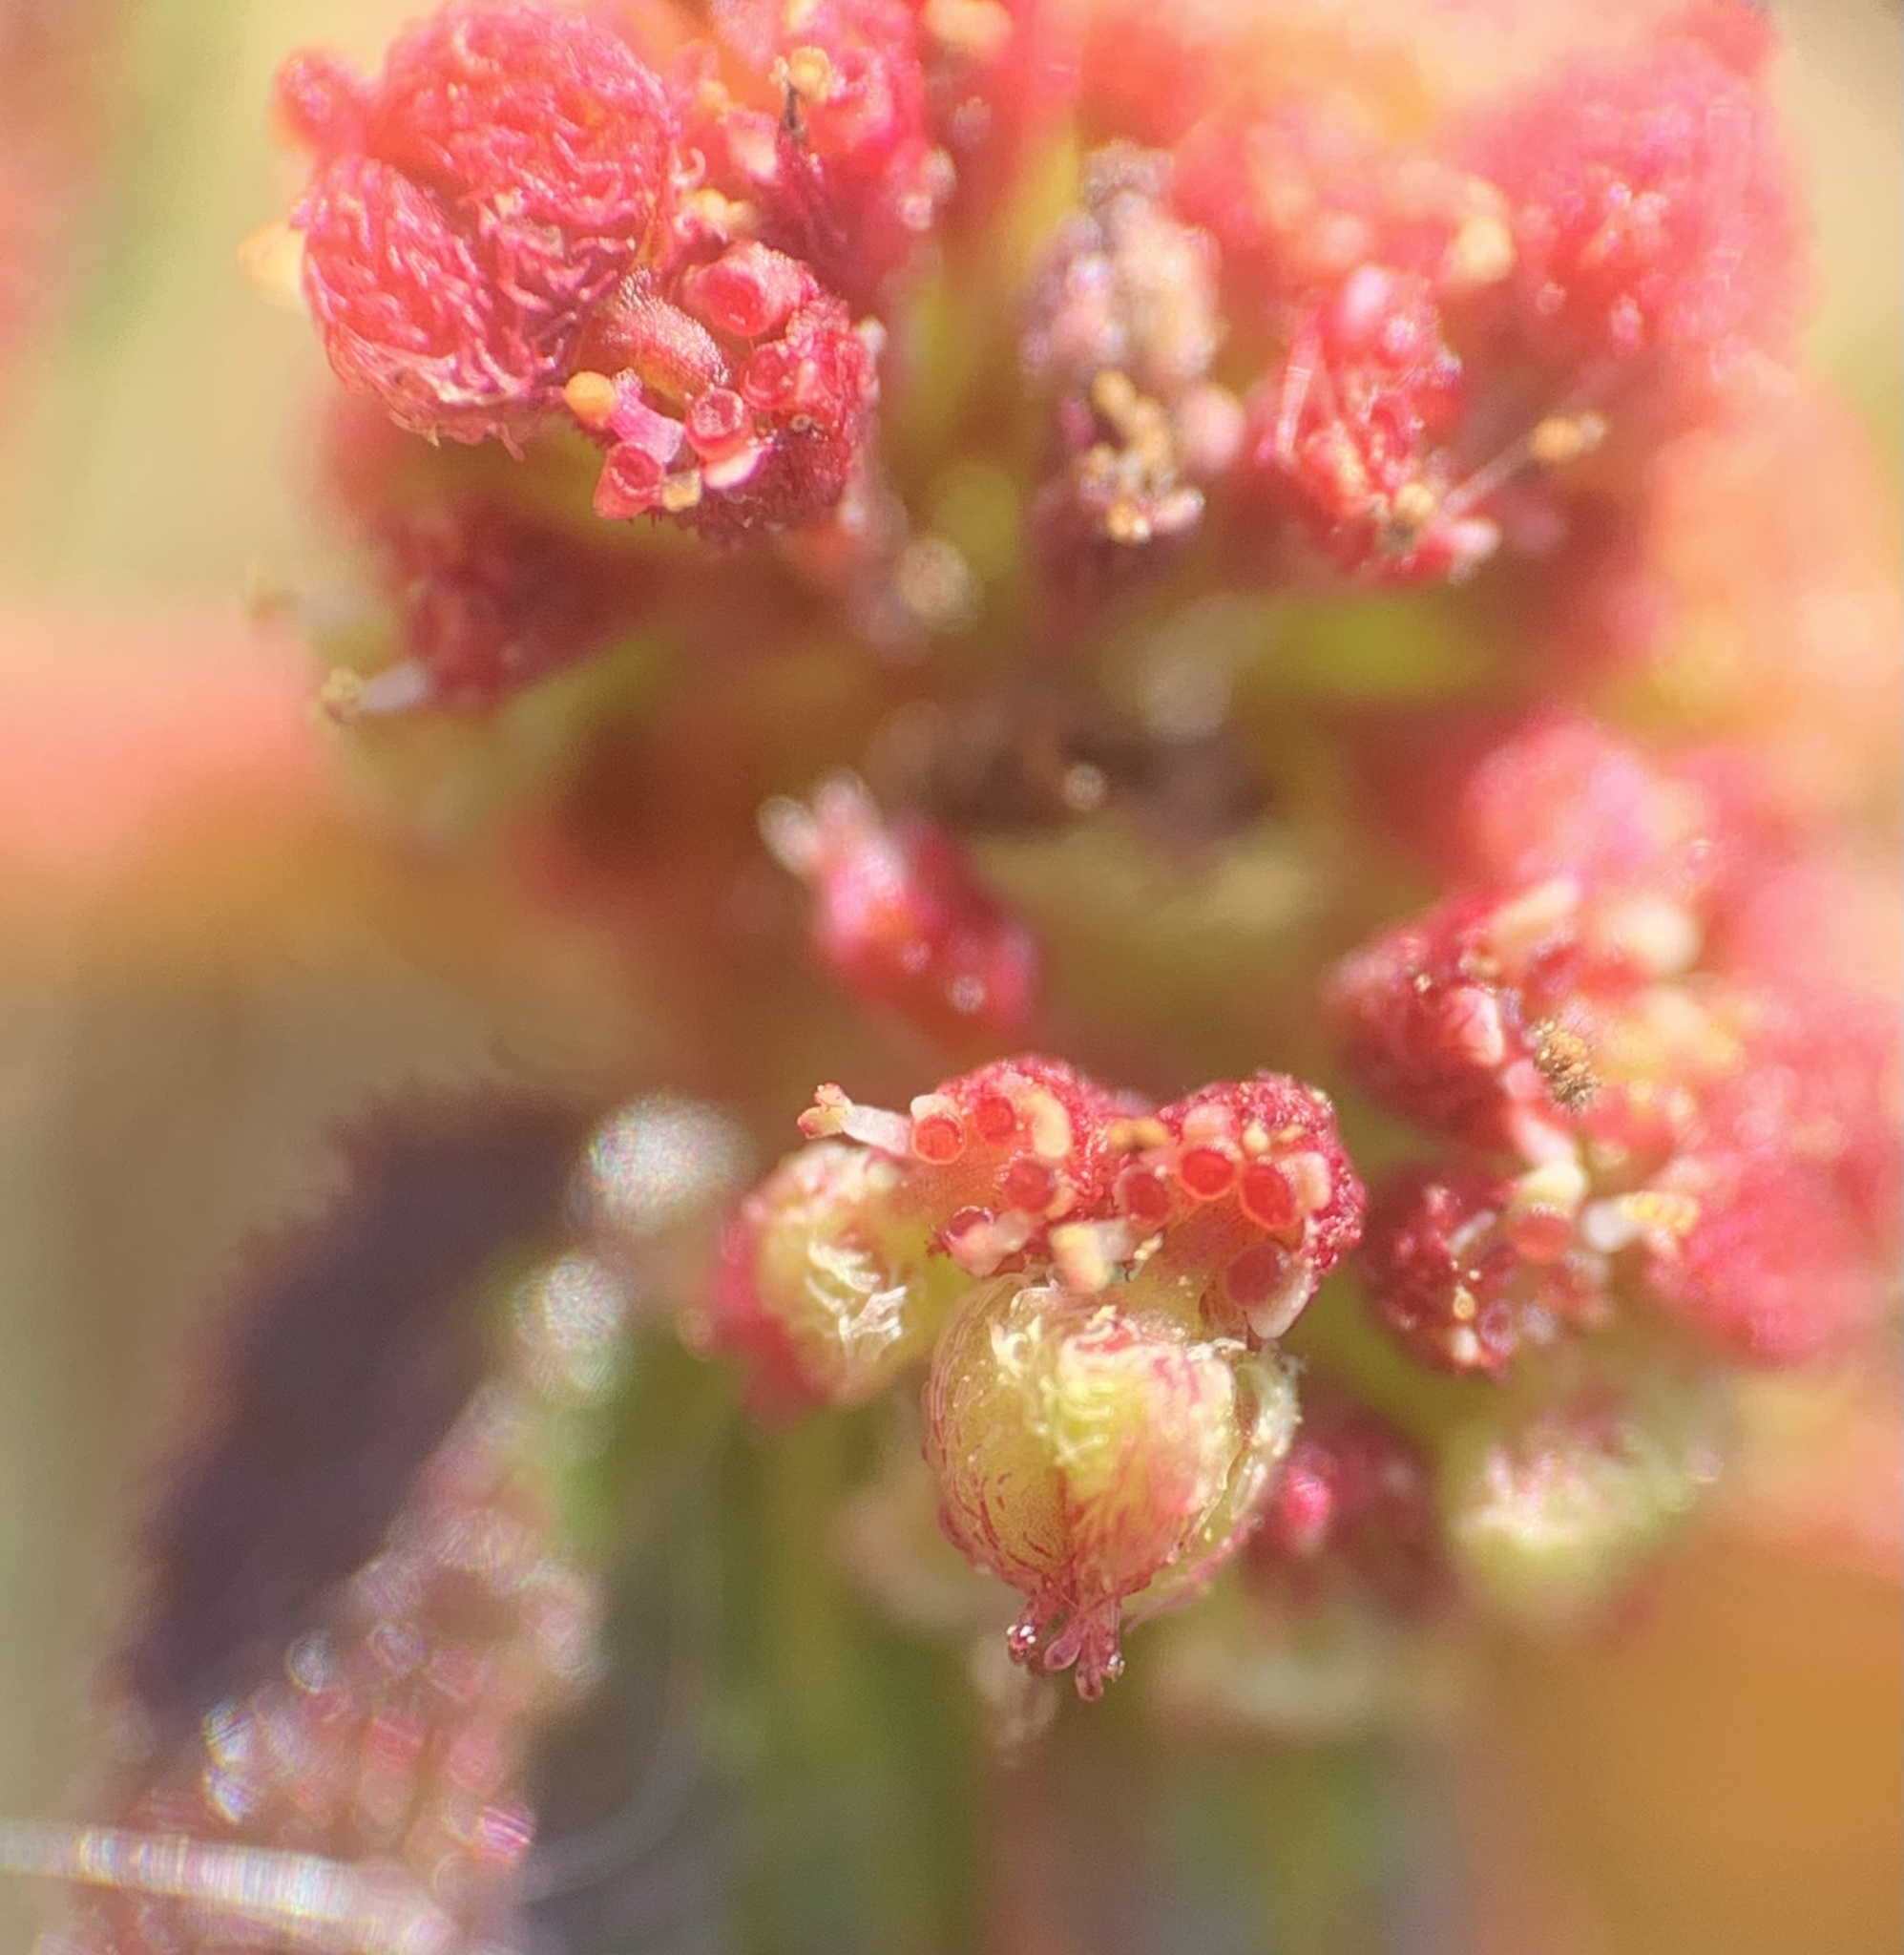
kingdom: Plantae
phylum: Tracheophyta
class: Magnoliopsida
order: Malpighiales
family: Euphorbiaceae
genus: Euphorbia
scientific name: Euphorbia hirta
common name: Pillpod sandmat
